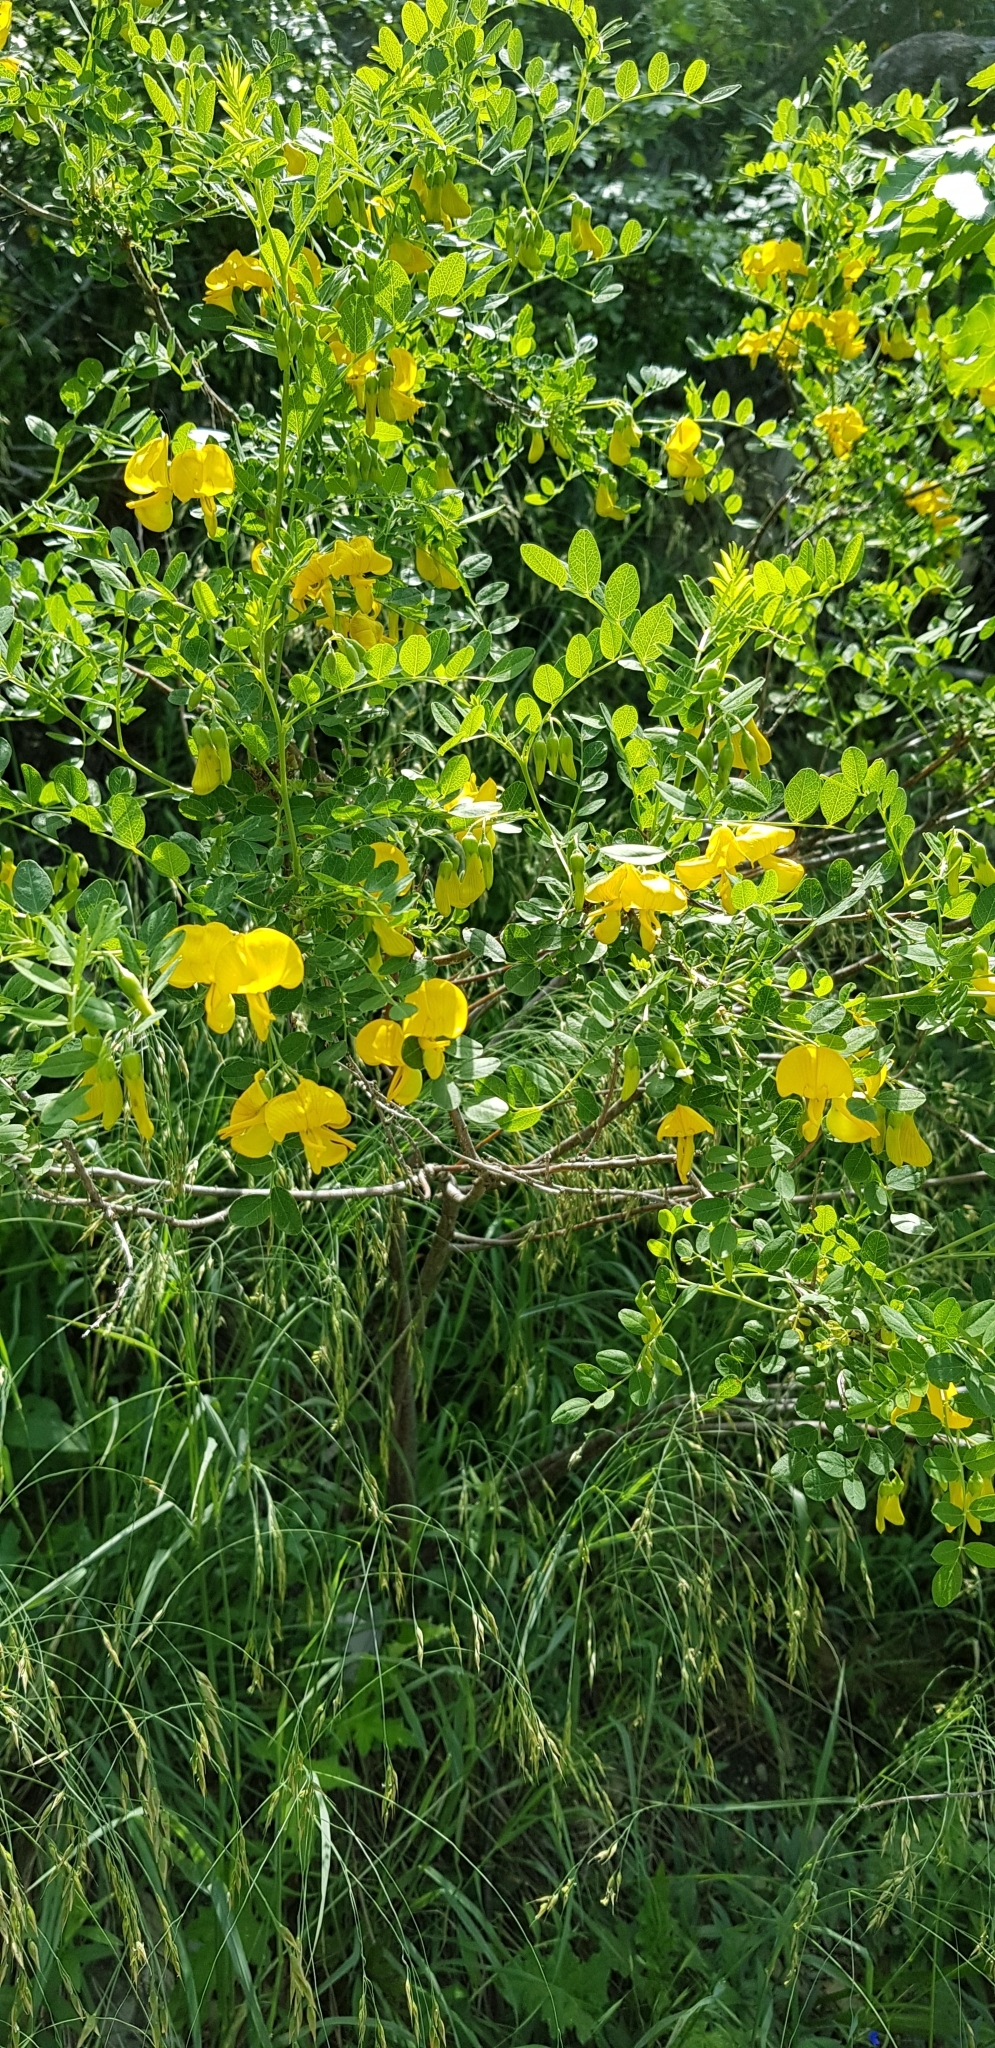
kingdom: Plantae
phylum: Tracheophyta
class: Magnoliopsida
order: Fabales
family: Fabaceae
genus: Colutea
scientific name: Colutea cilicica
